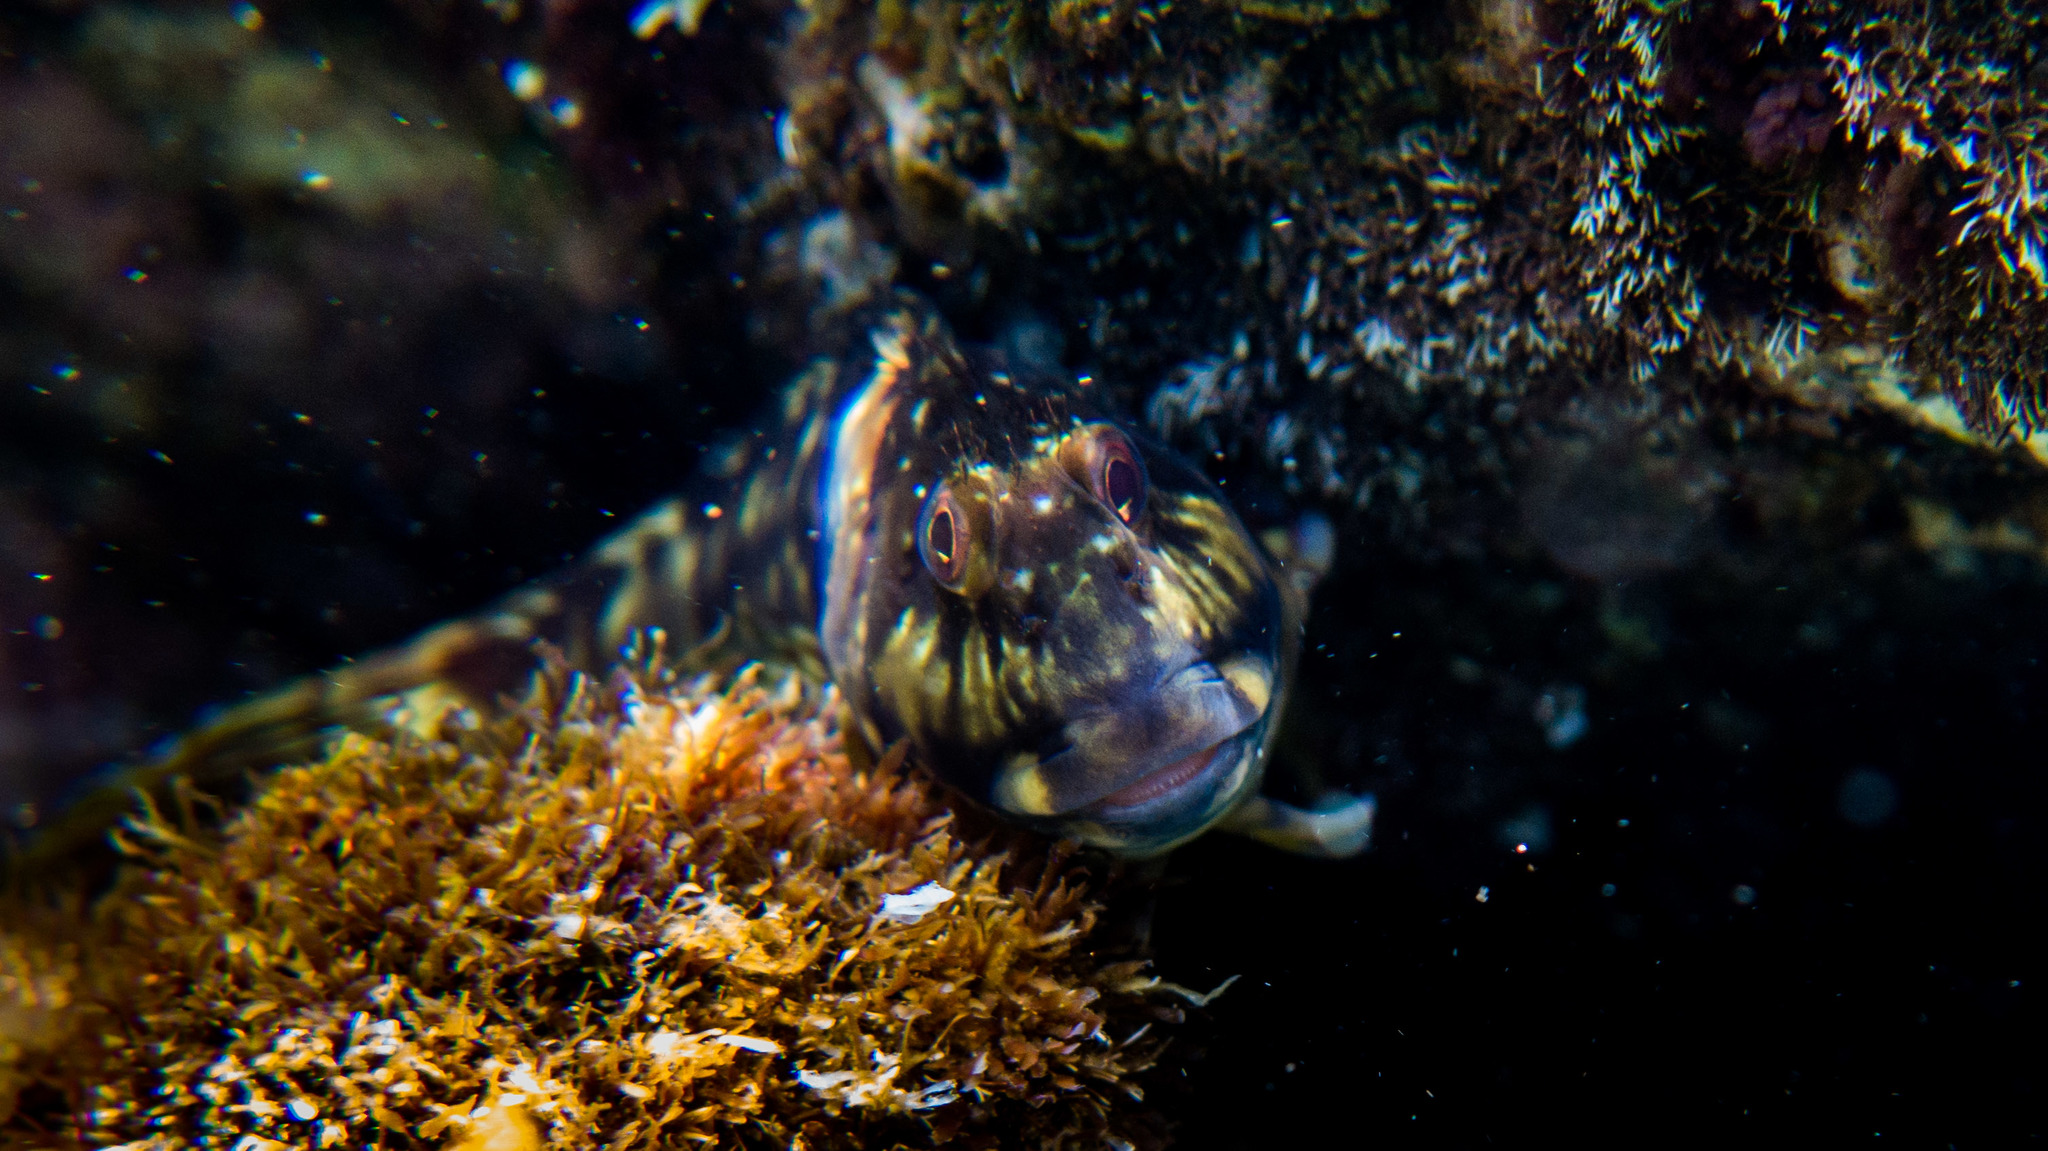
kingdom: Animalia
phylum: Chordata
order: Perciformes
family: Blenniidae
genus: Scartella
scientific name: Scartella cristata
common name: Molly miller
